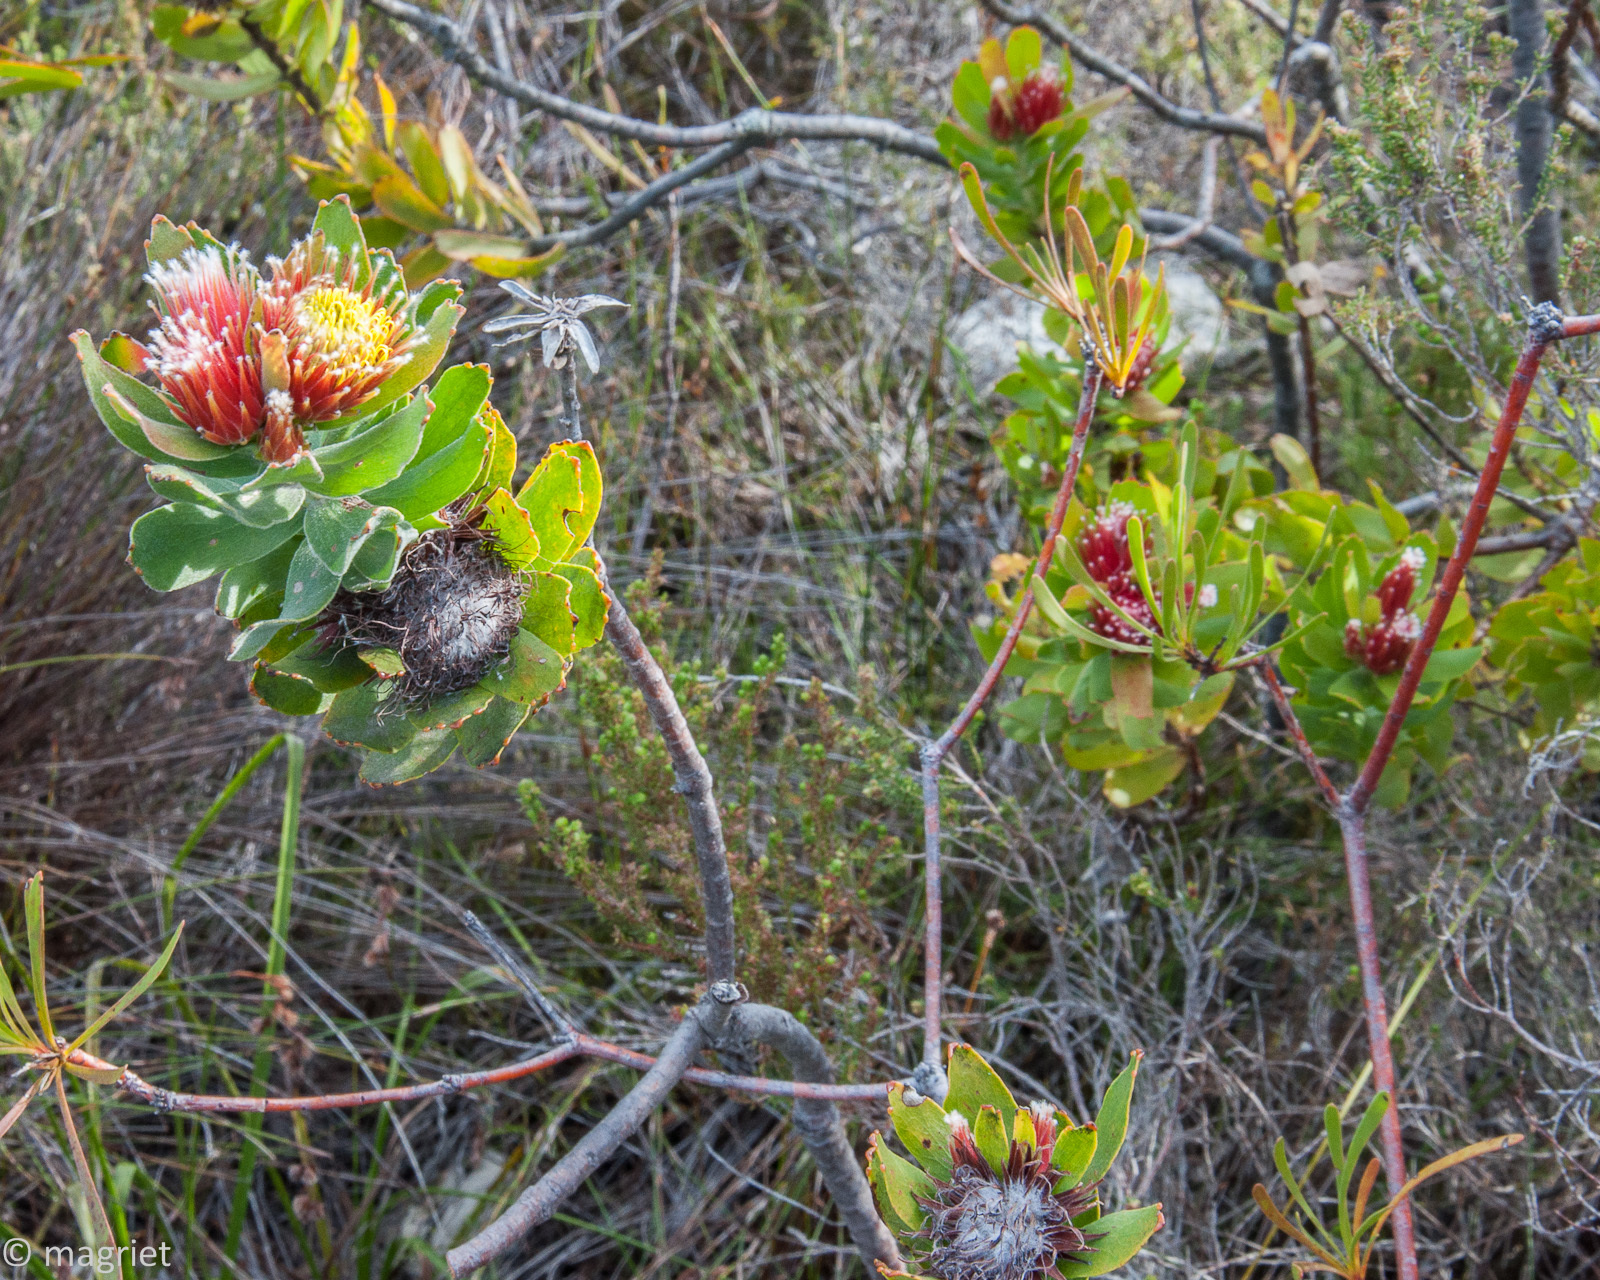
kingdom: Plantae
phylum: Tracheophyta
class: Magnoliopsida
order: Proteales
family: Proteaceae
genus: Leucospermum
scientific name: Leucospermum oleifolium
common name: Matches
